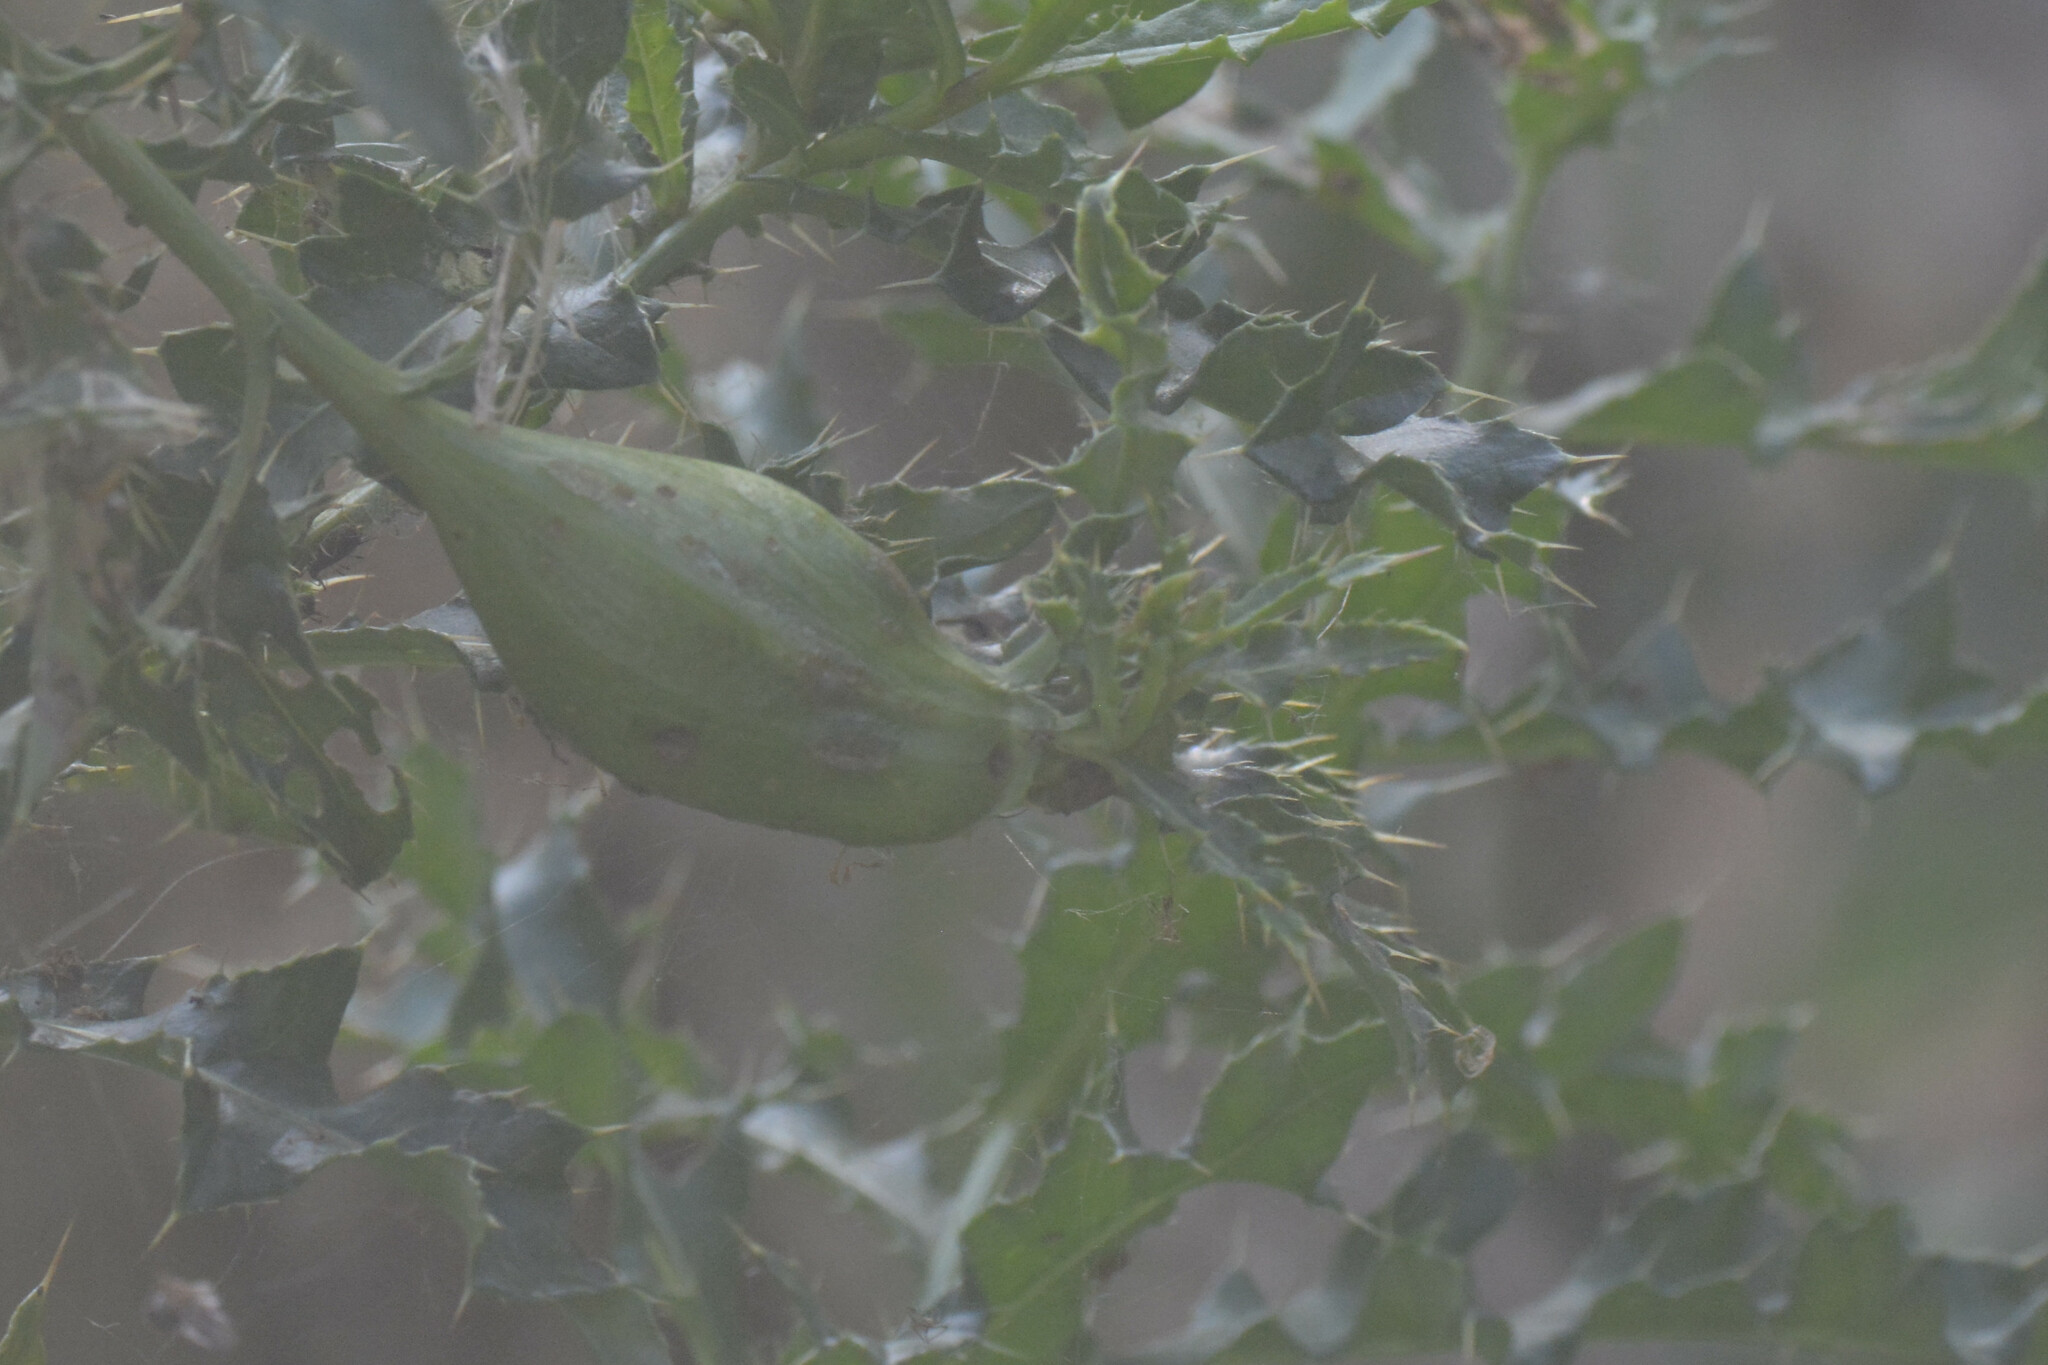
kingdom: Animalia
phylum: Arthropoda
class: Insecta
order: Diptera
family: Tephritidae
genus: Urophora
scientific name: Urophora cardui
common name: Fruit fly
